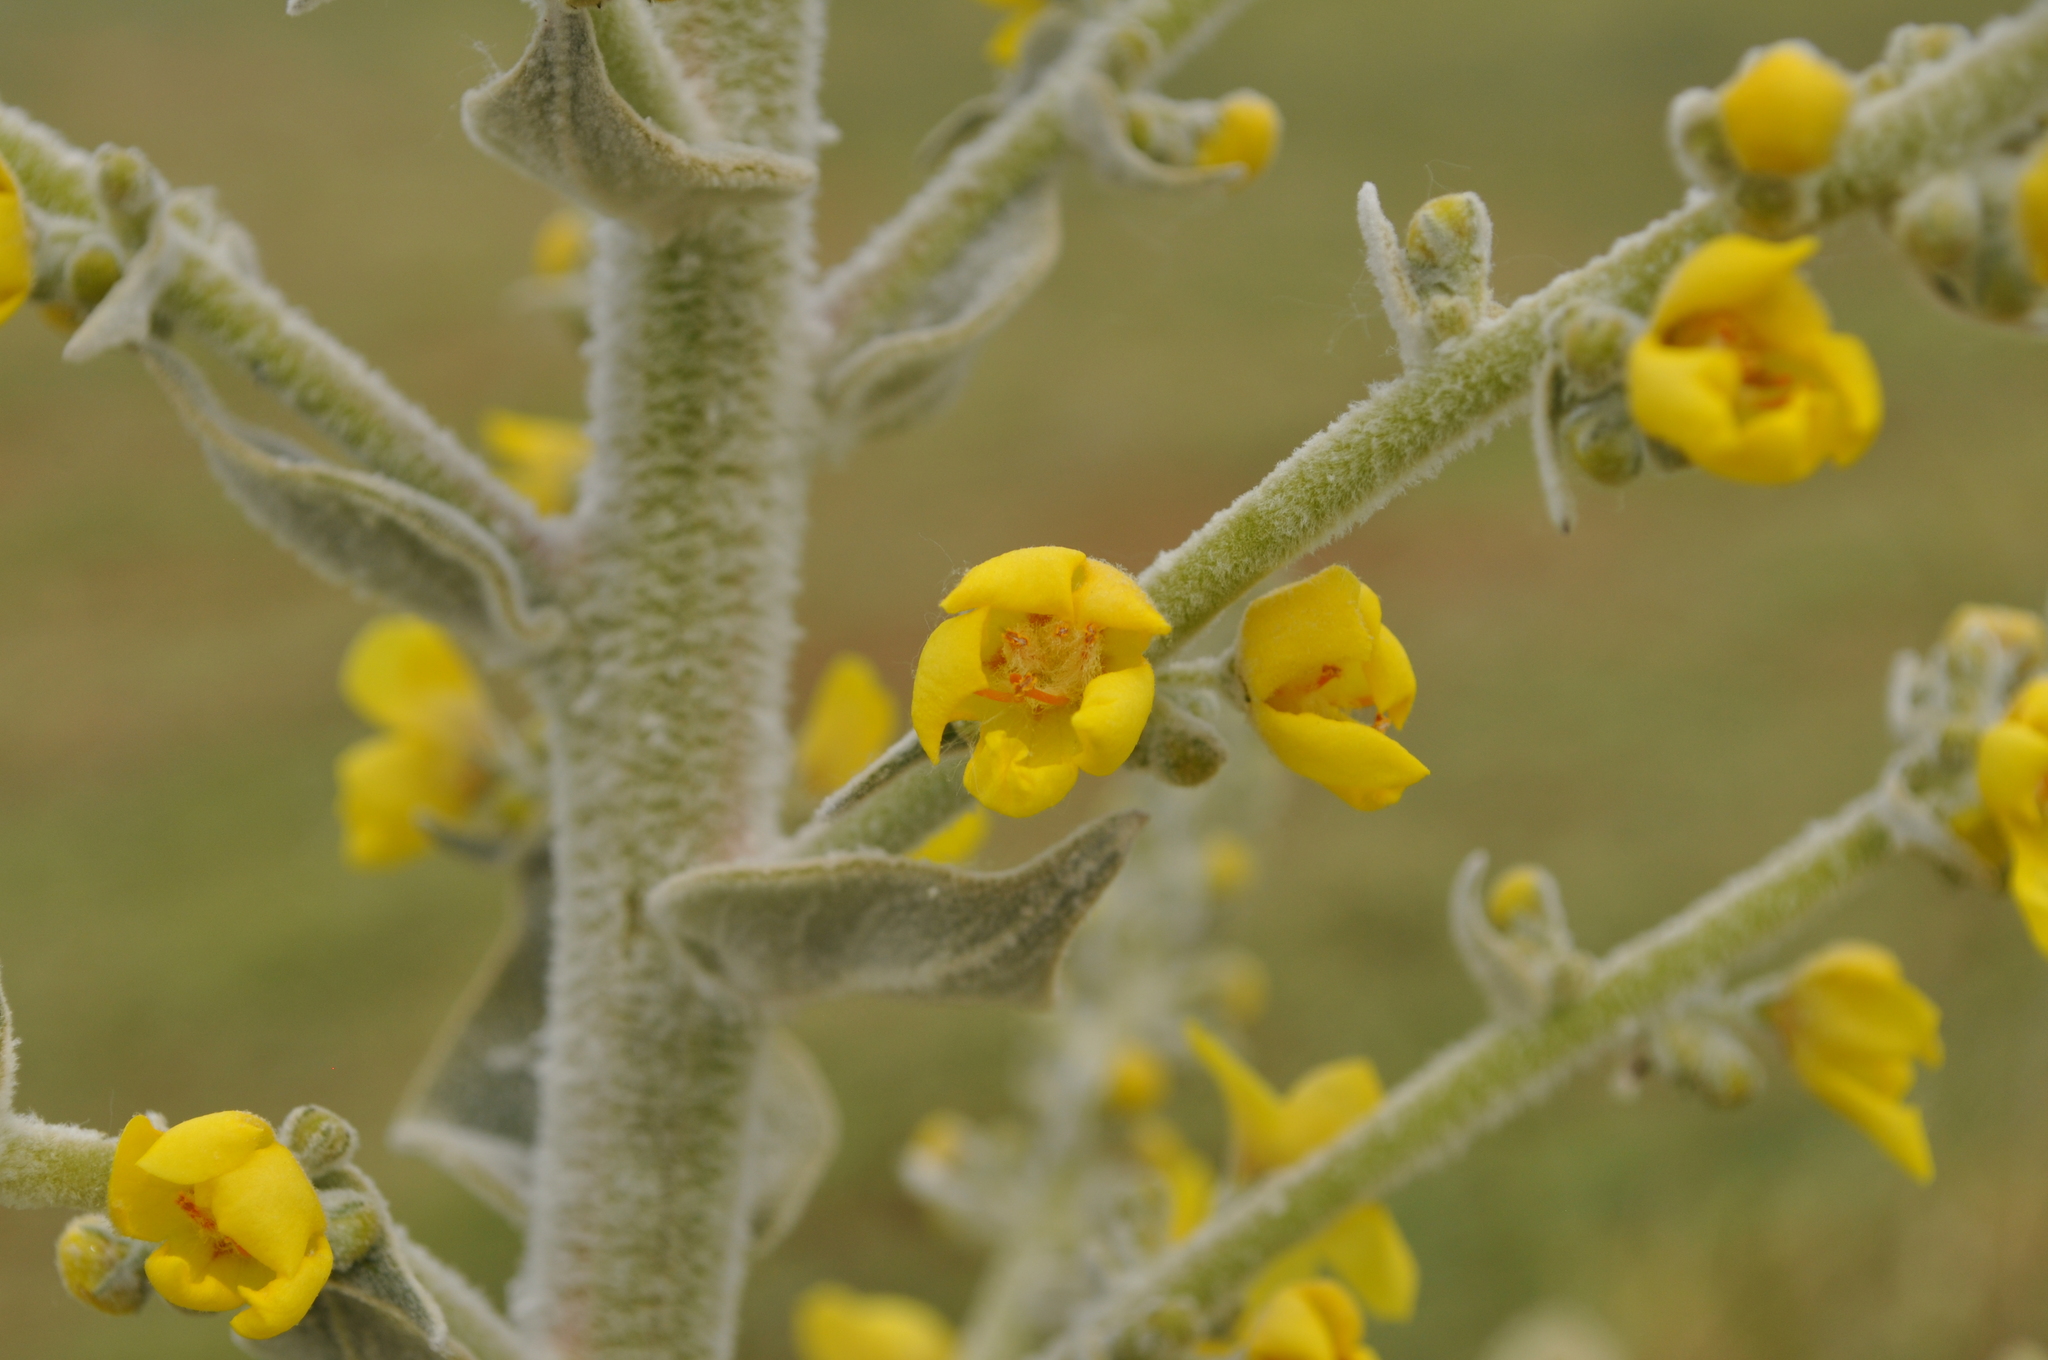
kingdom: Plantae
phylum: Tracheophyta
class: Magnoliopsida
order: Lamiales
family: Scrophulariaceae
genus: Verbascum
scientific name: Verbascum pulverulentum
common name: Broad-leaf mullein
